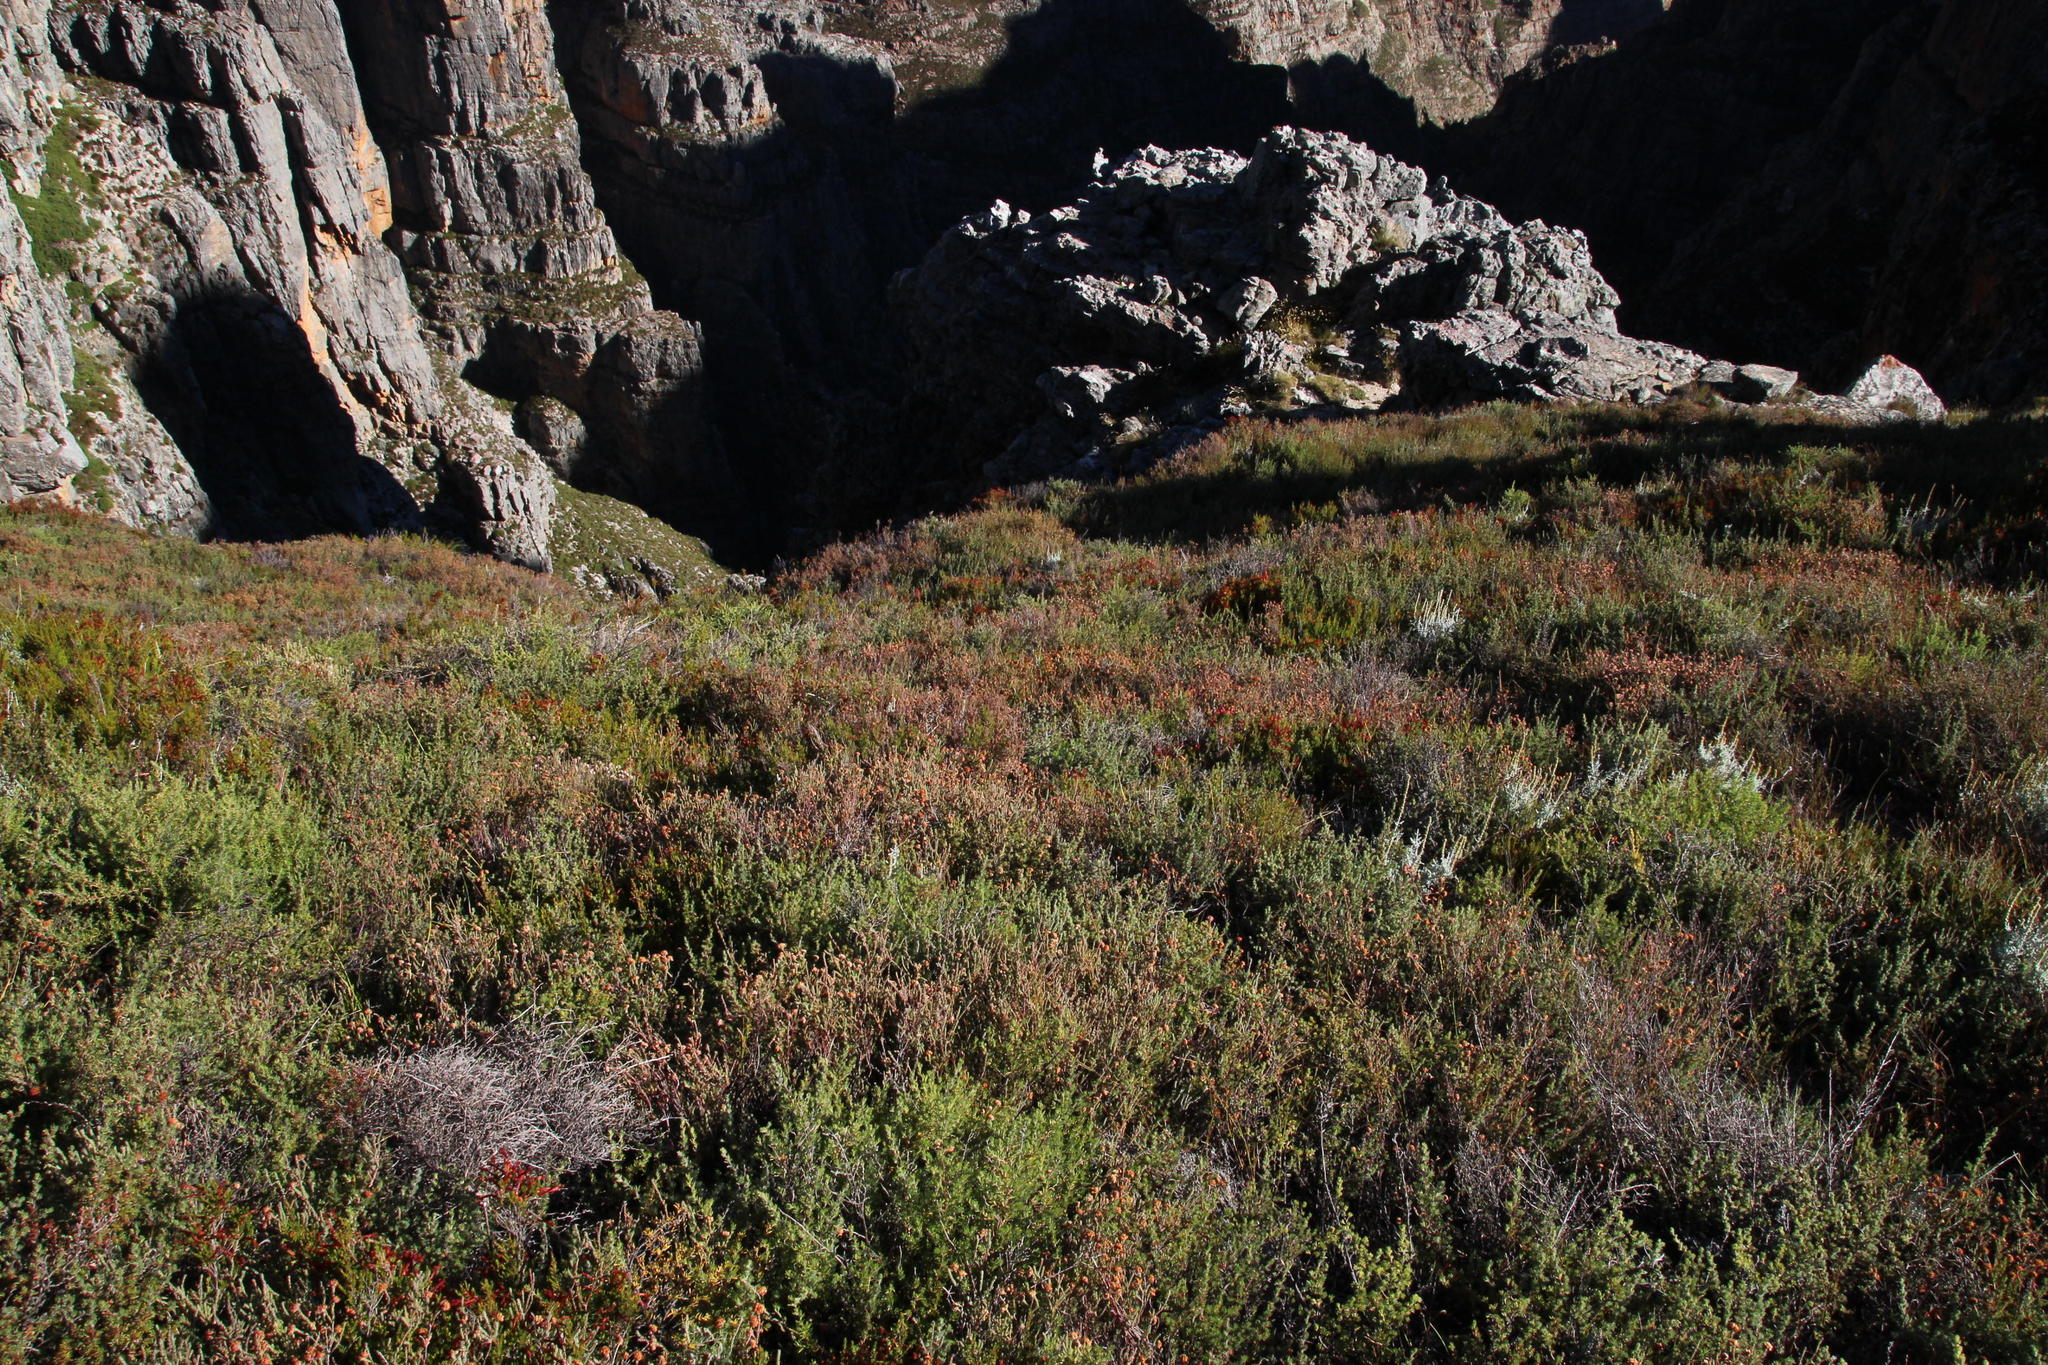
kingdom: Plantae
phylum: Tracheophyta
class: Magnoliopsida
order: Ericales
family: Ericaceae
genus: Erica
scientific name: Erica curviflora
